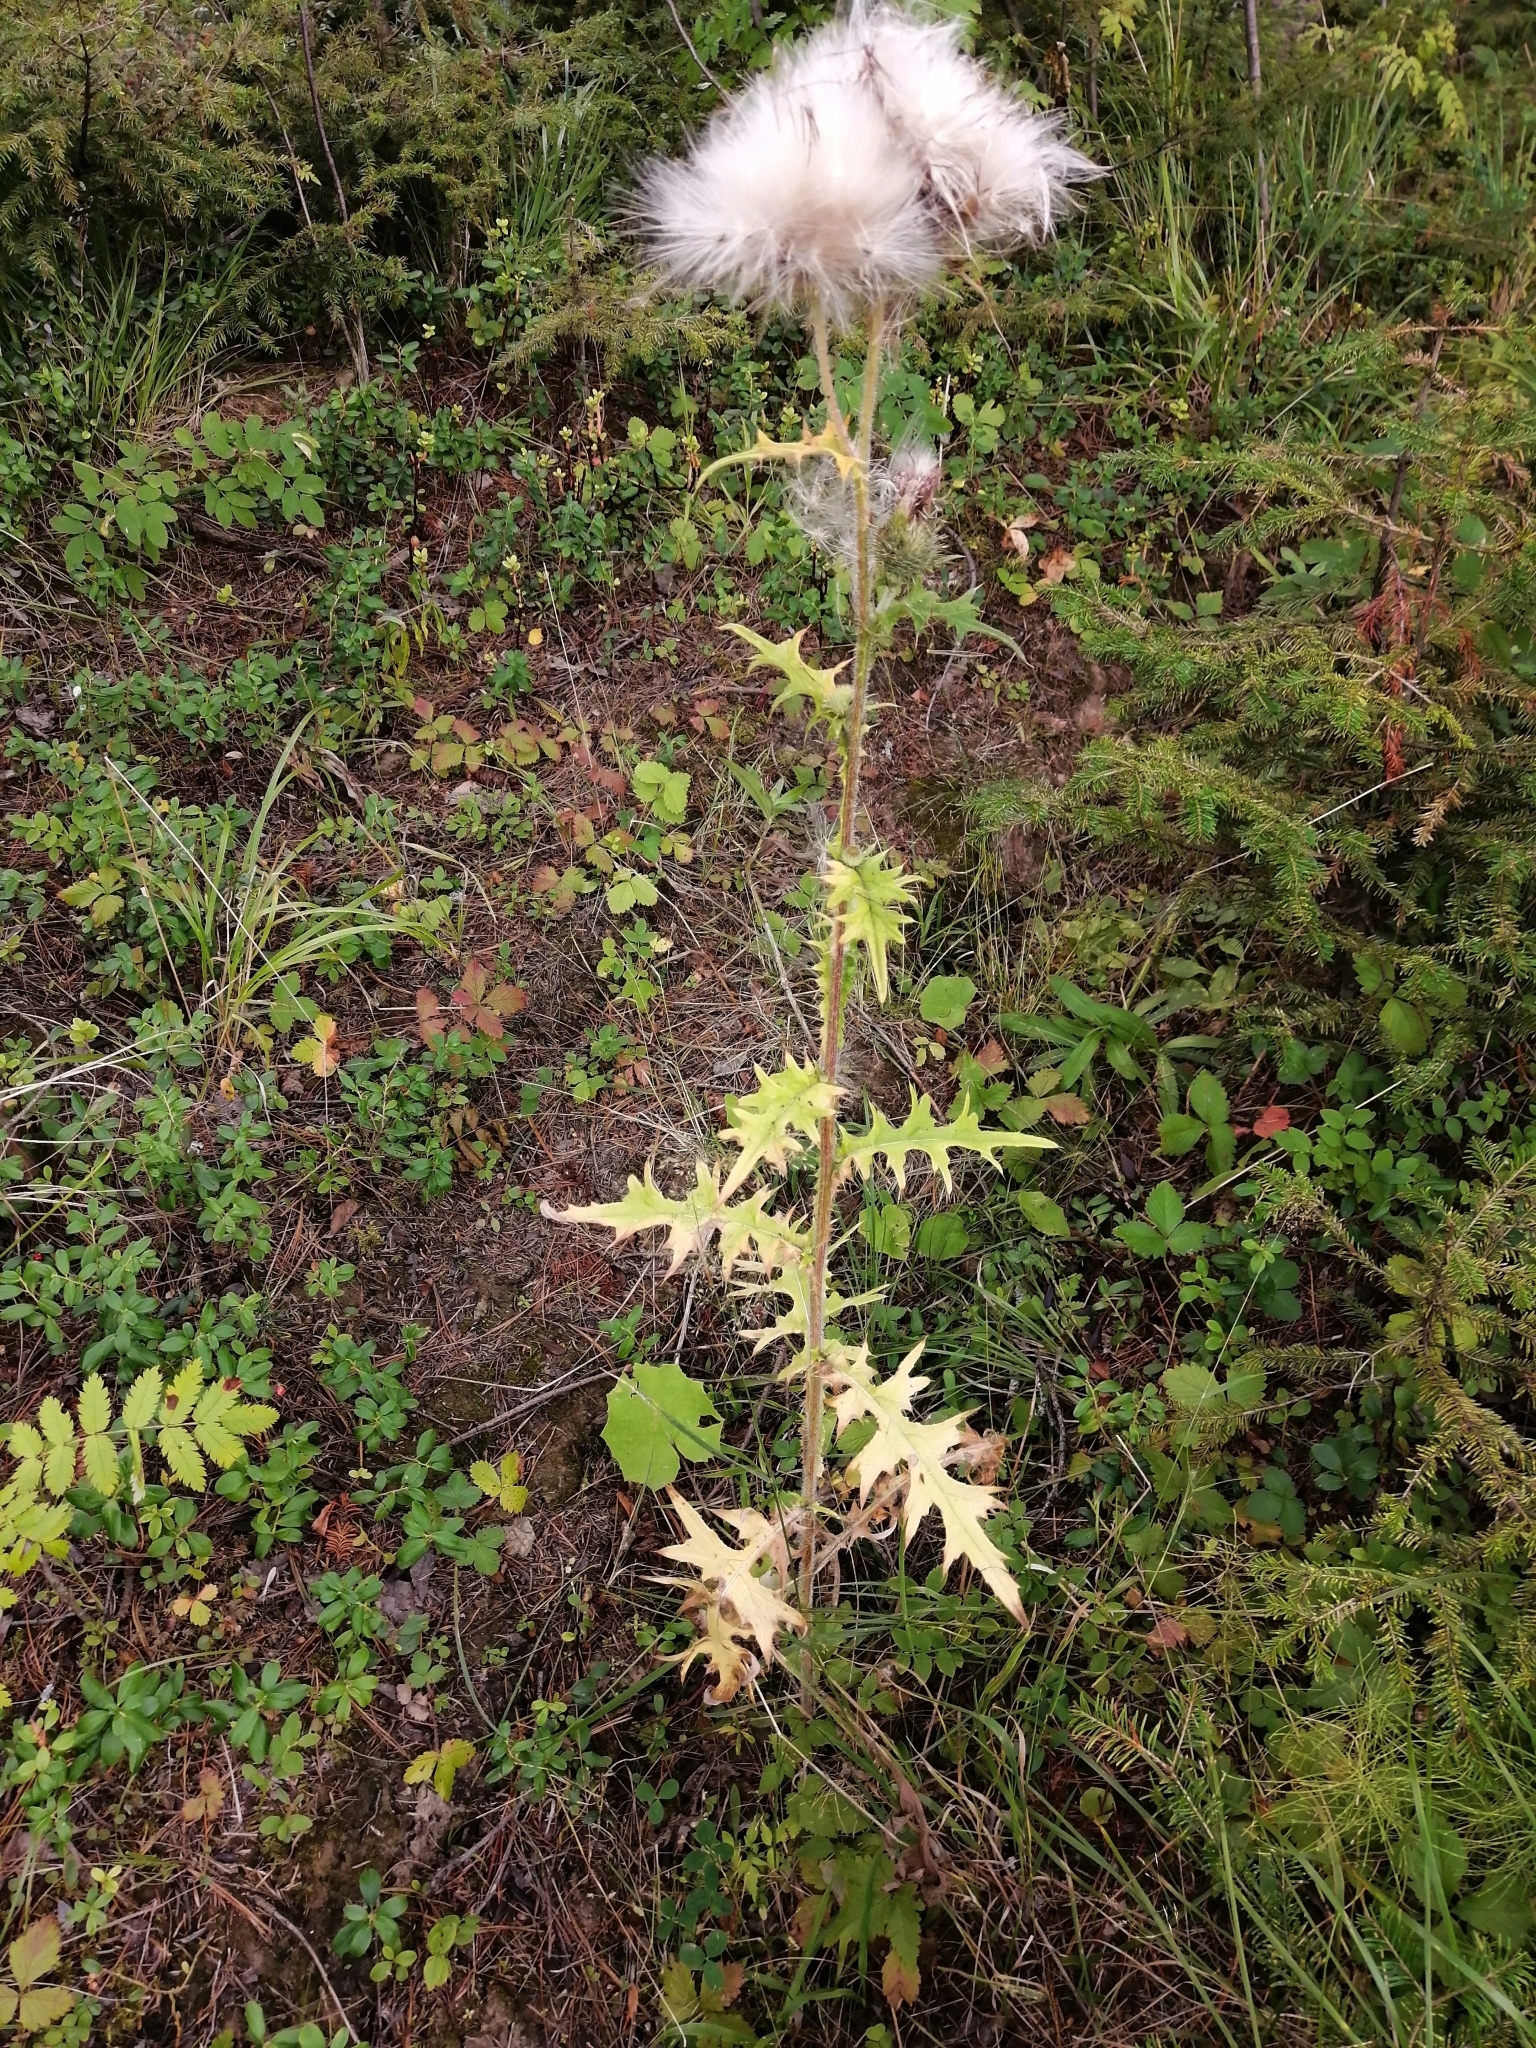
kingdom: Plantae
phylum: Tracheophyta
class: Magnoliopsida
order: Asterales
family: Asteraceae
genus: Cirsium
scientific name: Cirsium vulgare
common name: Bull thistle
